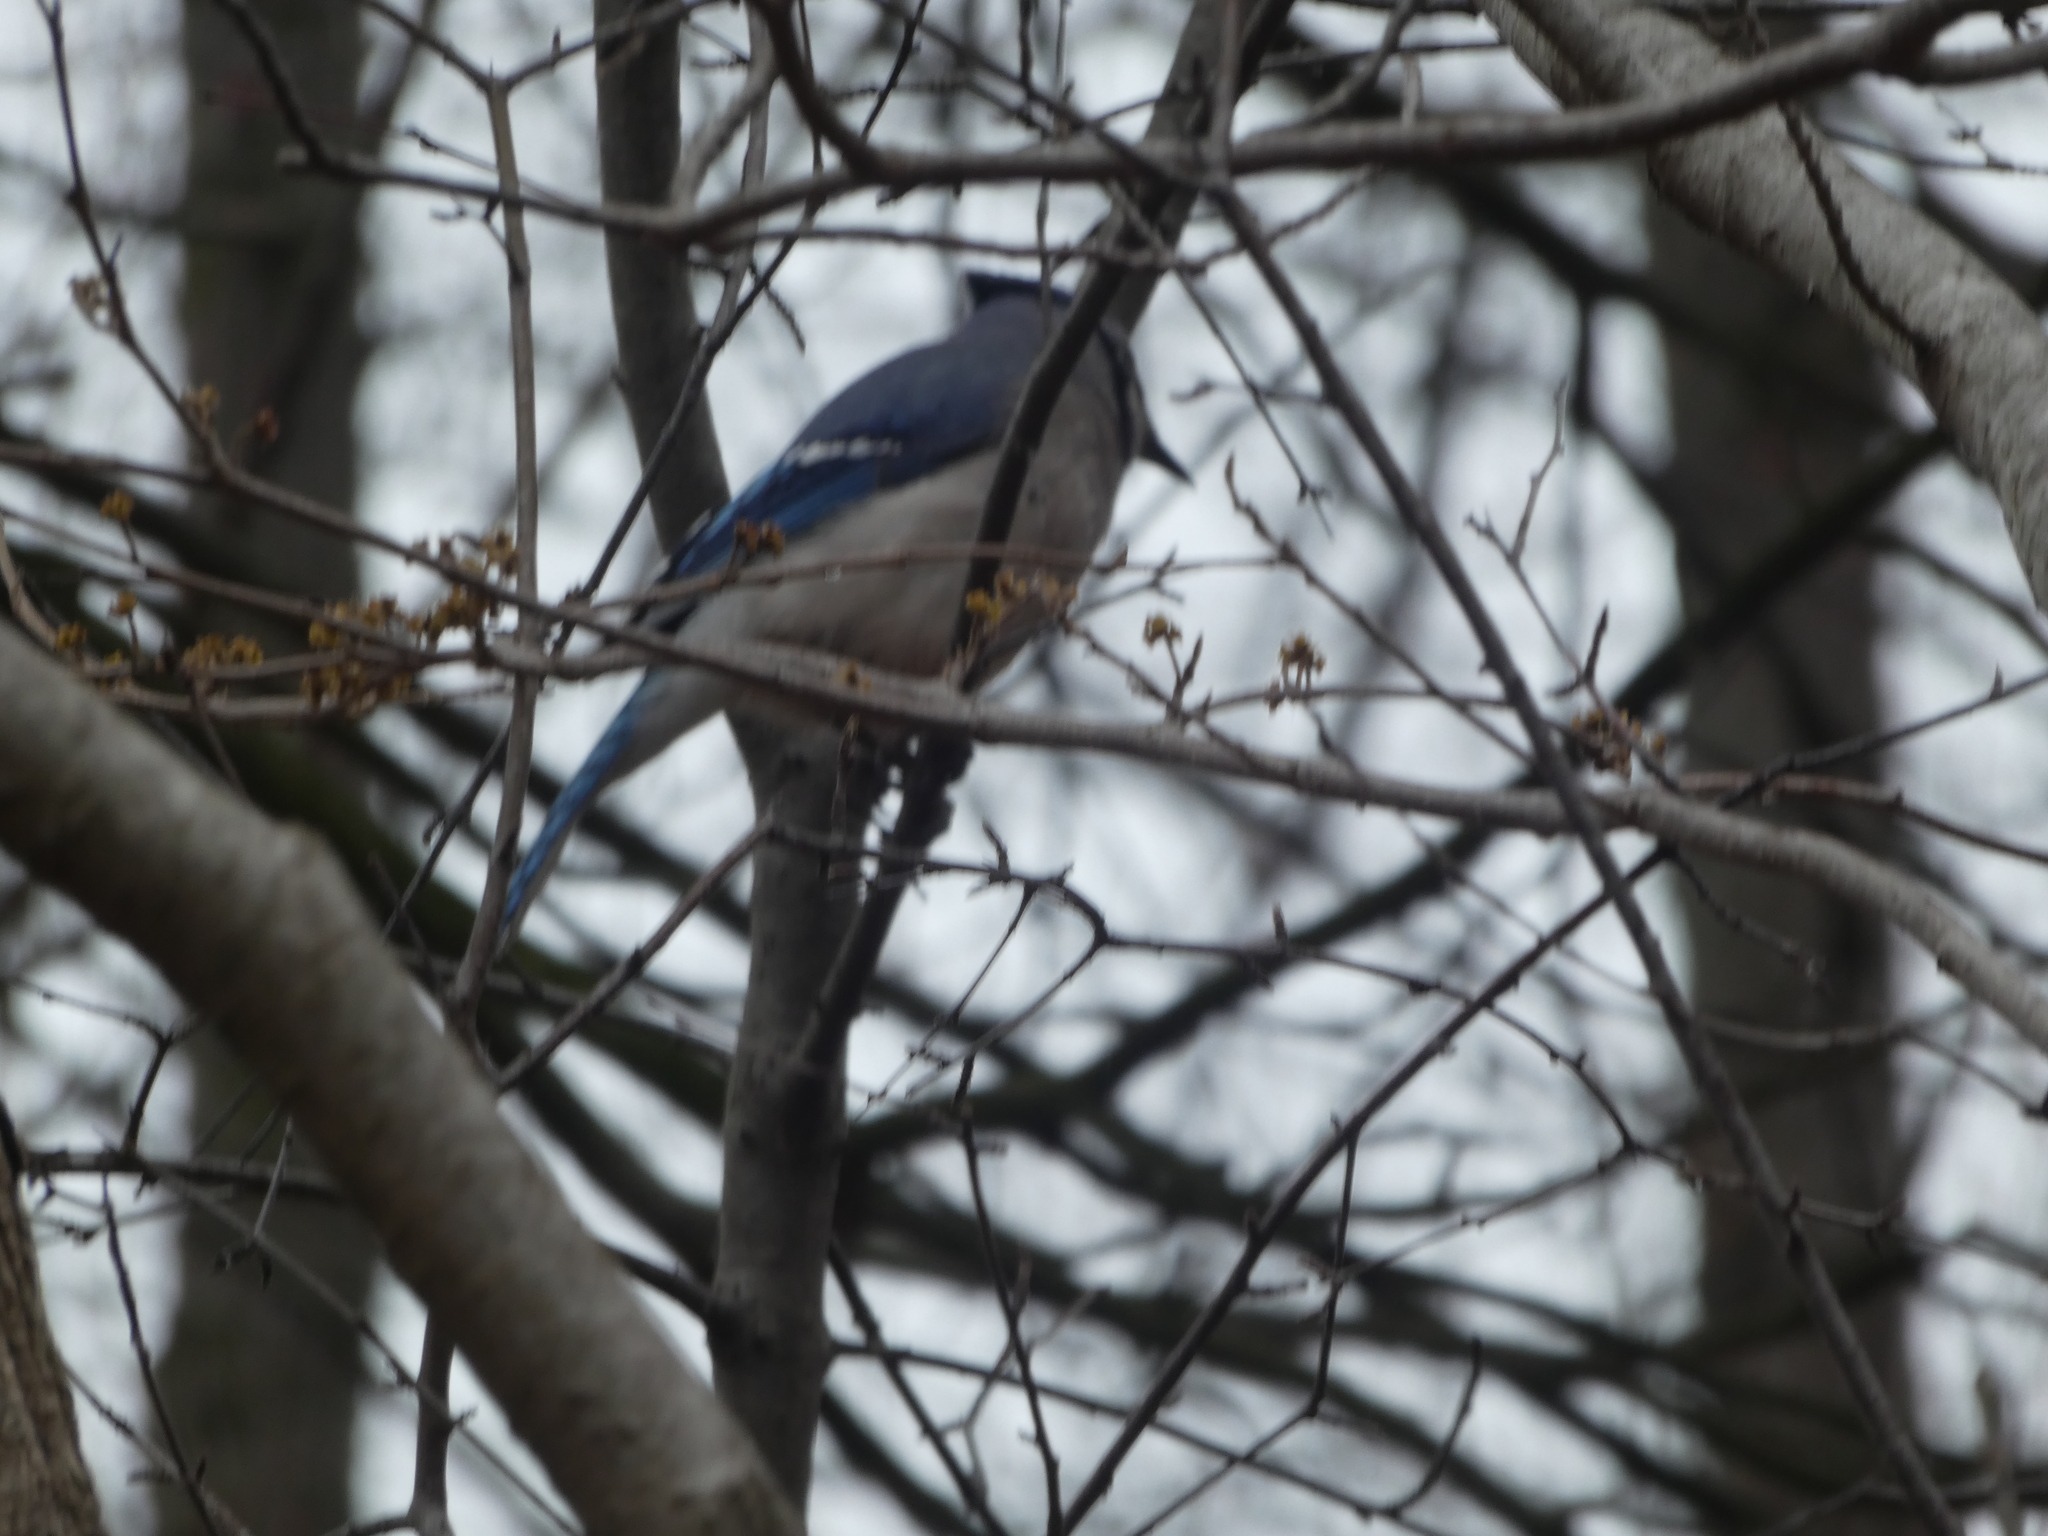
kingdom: Animalia
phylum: Chordata
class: Aves
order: Passeriformes
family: Corvidae
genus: Cyanocitta
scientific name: Cyanocitta cristata
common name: Blue jay
